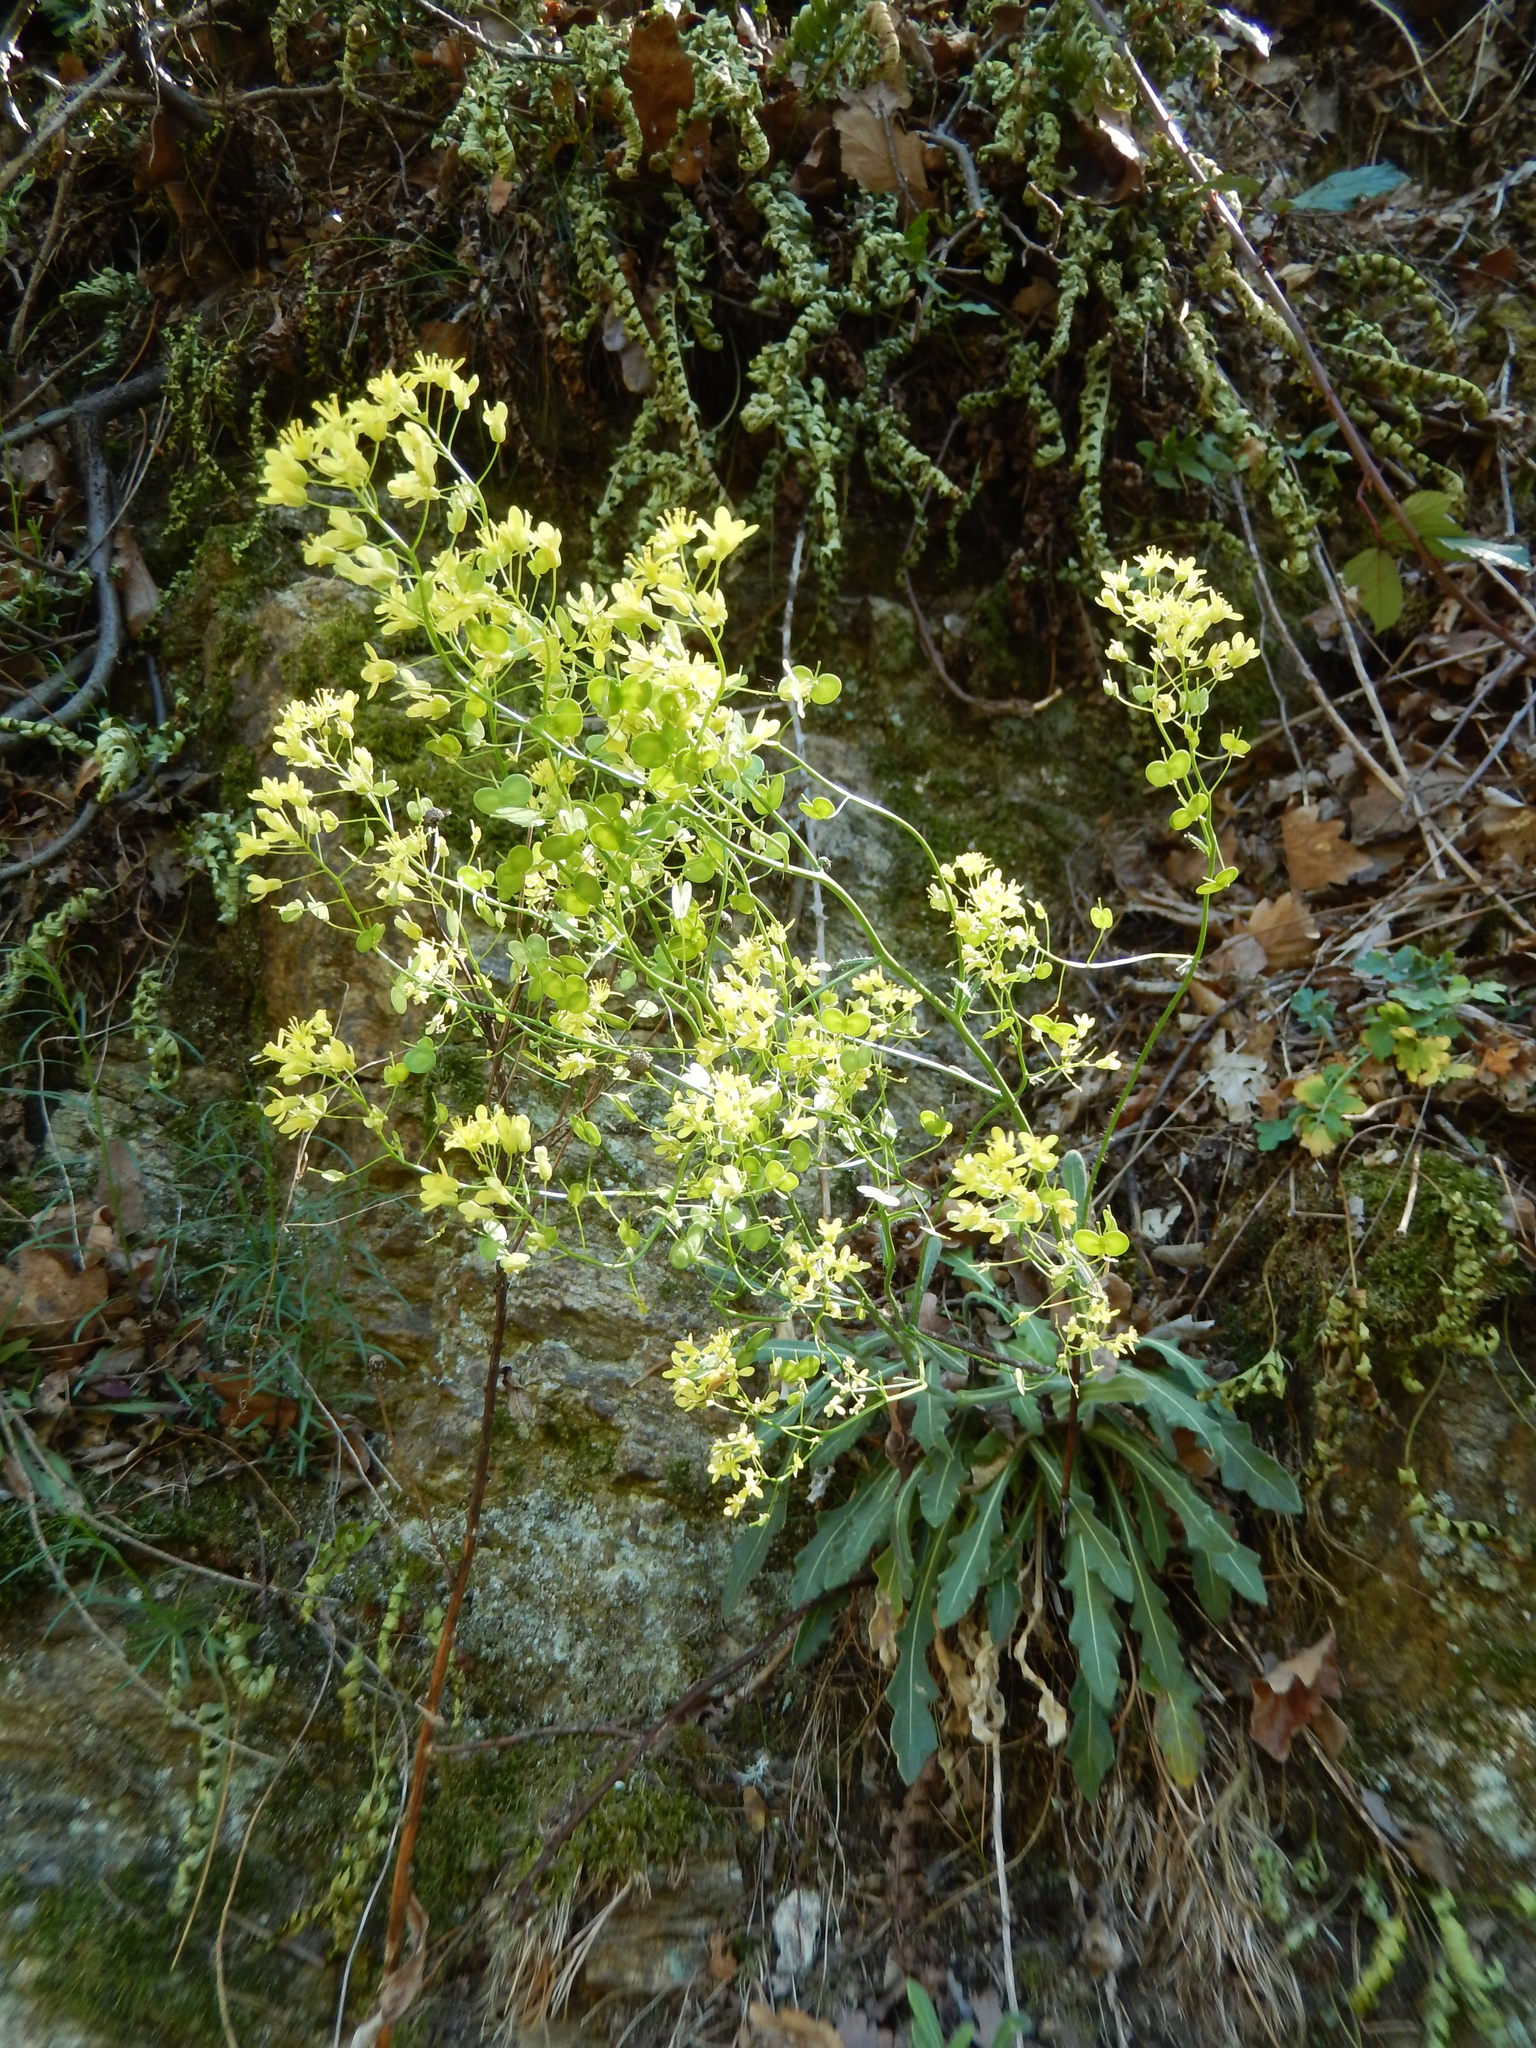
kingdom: Plantae
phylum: Tracheophyta
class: Magnoliopsida
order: Brassicales
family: Brassicaceae
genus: Biscutella
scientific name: Biscutella laevigata
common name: Buckler mustard
